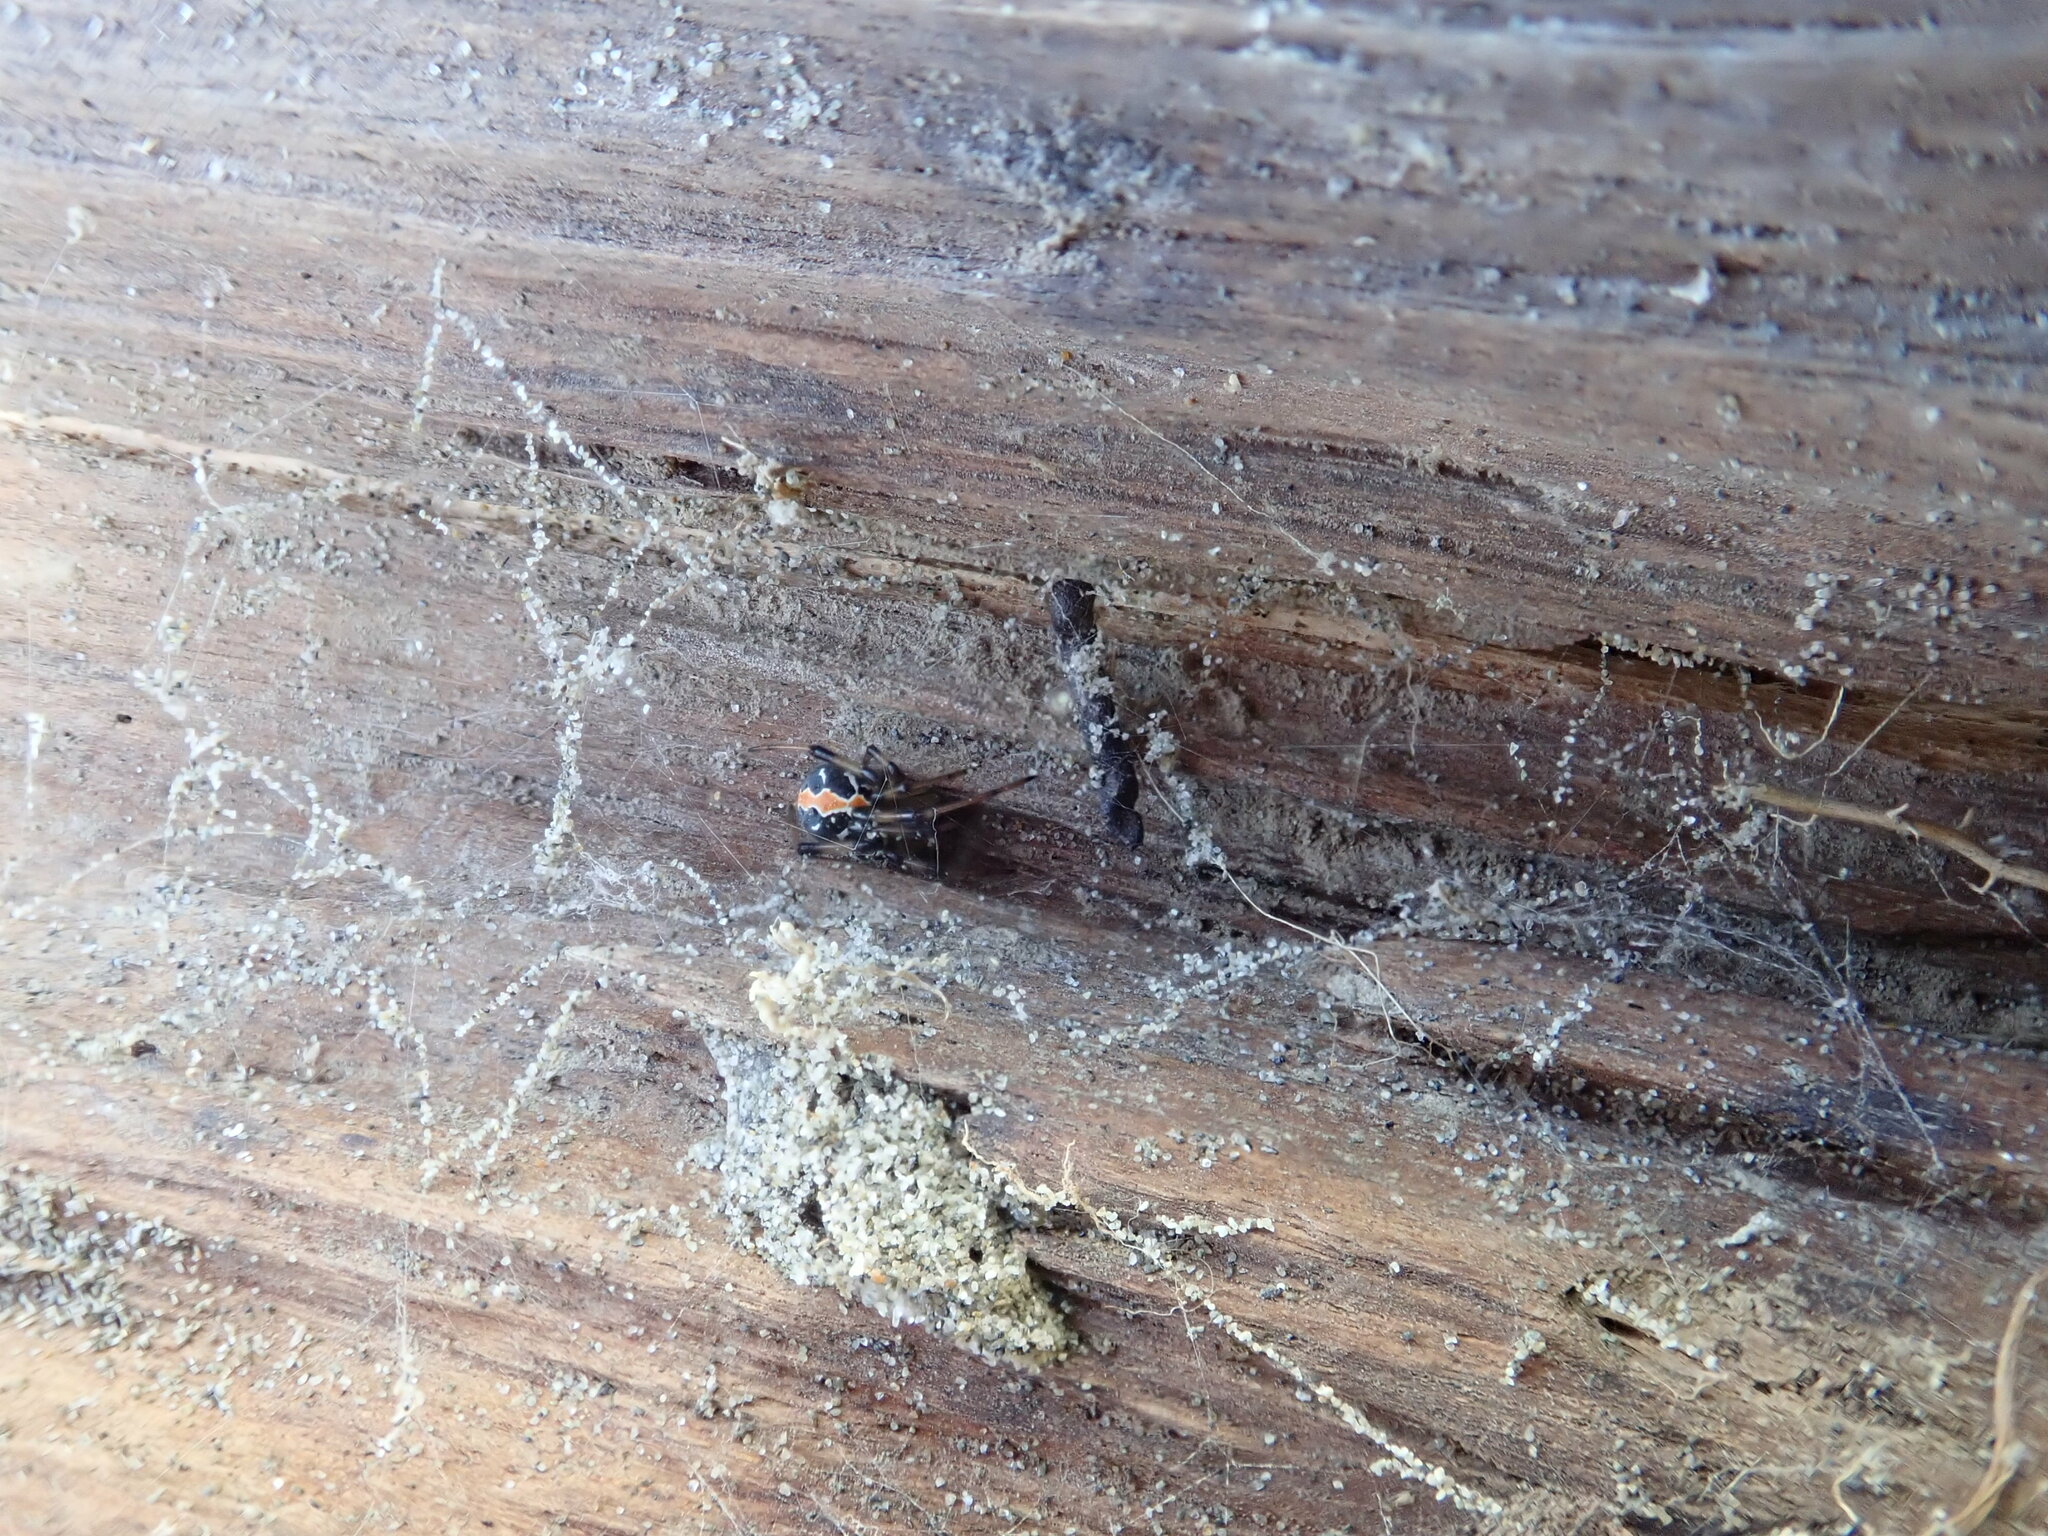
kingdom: Animalia
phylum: Arthropoda
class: Arachnida
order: Araneae
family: Theridiidae
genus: Latrodectus
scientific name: Latrodectus katipo
